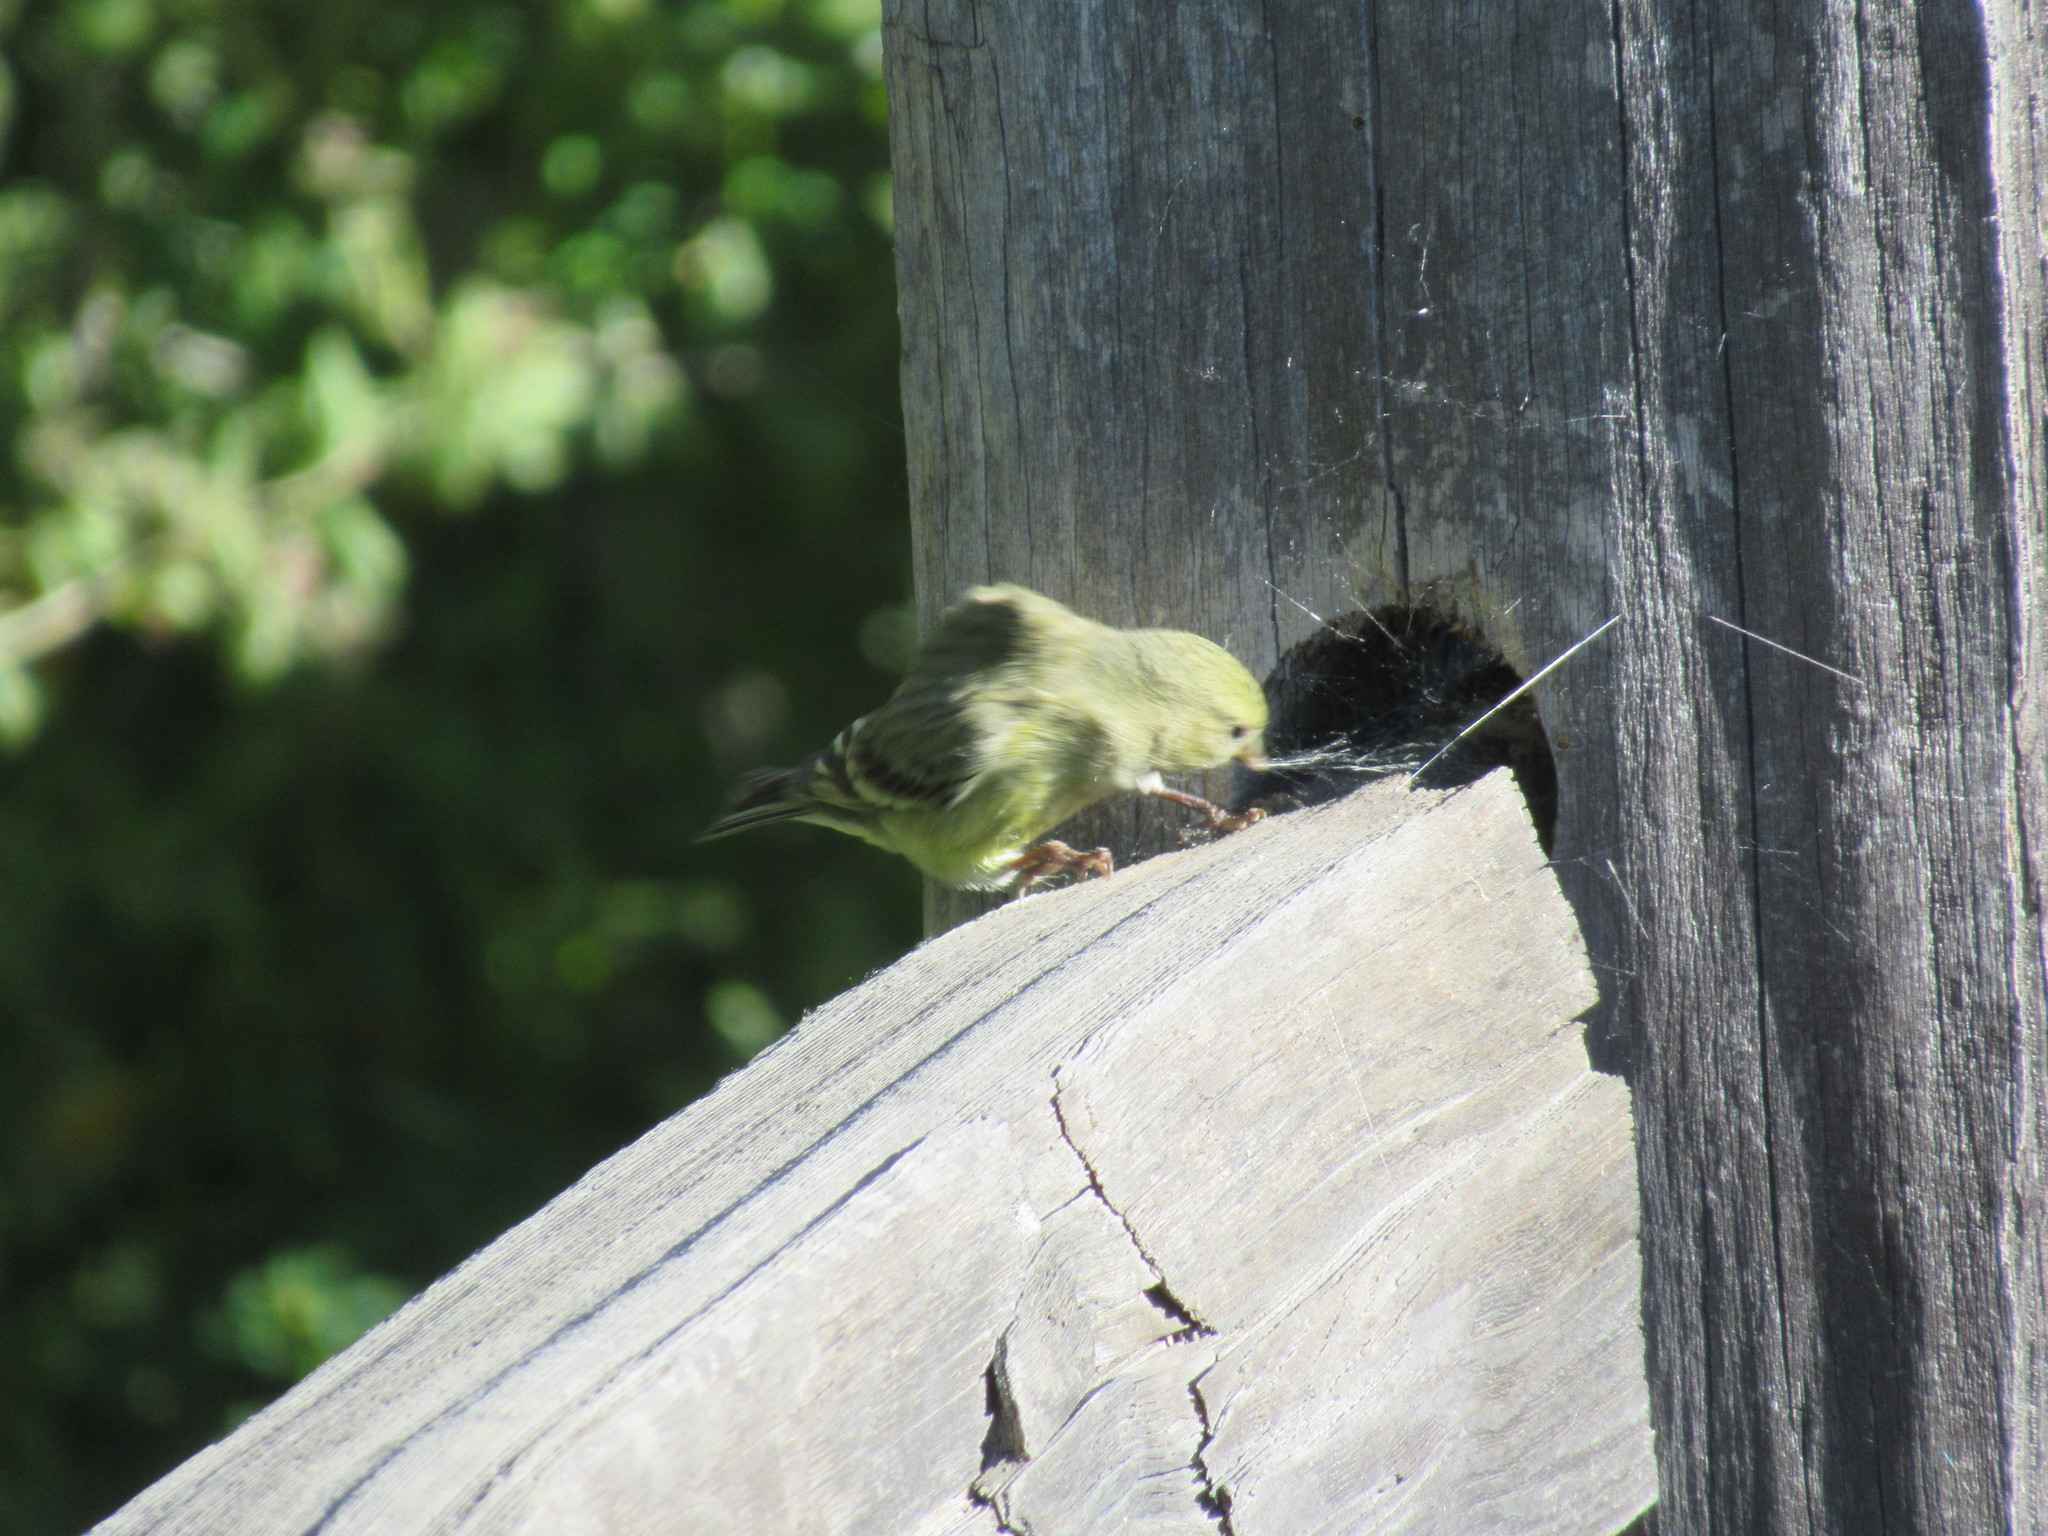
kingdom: Animalia
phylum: Chordata
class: Aves
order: Passeriformes
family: Fringillidae
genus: Spinus
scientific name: Spinus psaltria
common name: Lesser goldfinch
